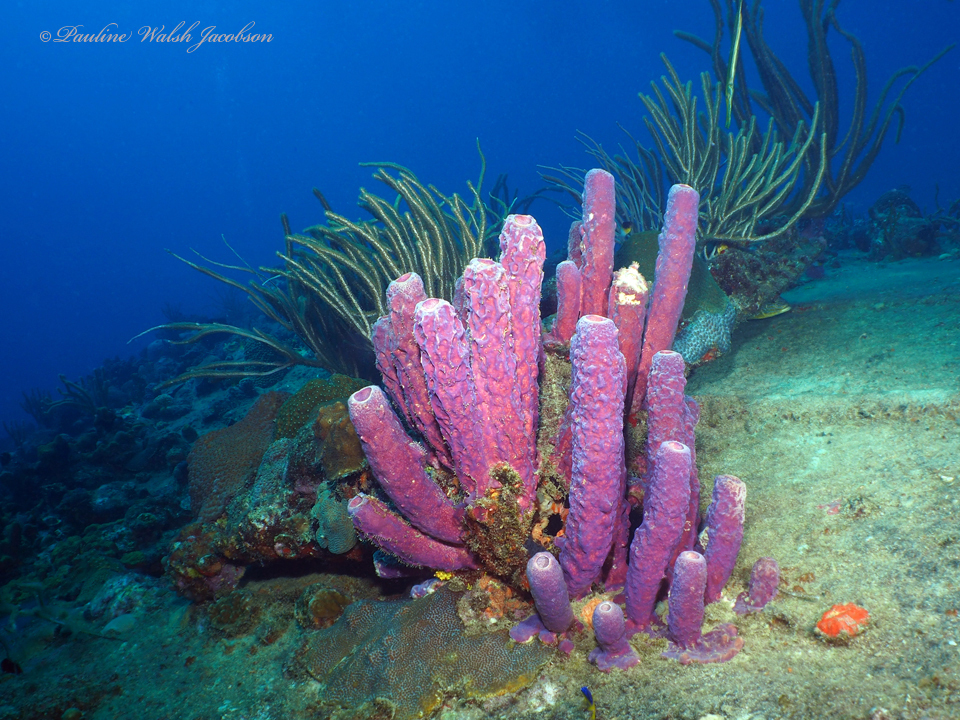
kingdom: Animalia
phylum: Porifera
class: Demospongiae
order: Verongiida
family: Aplysinidae
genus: Aplysina
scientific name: Aplysina archeri
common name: Stove-pipe sponge
